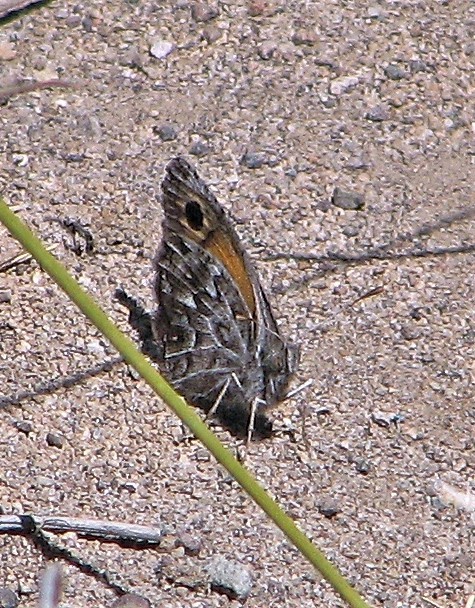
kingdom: Animalia
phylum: Arthropoda
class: Insecta
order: Lepidoptera
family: Nymphalidae
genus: Argyrophorus
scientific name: Argyrophorus
